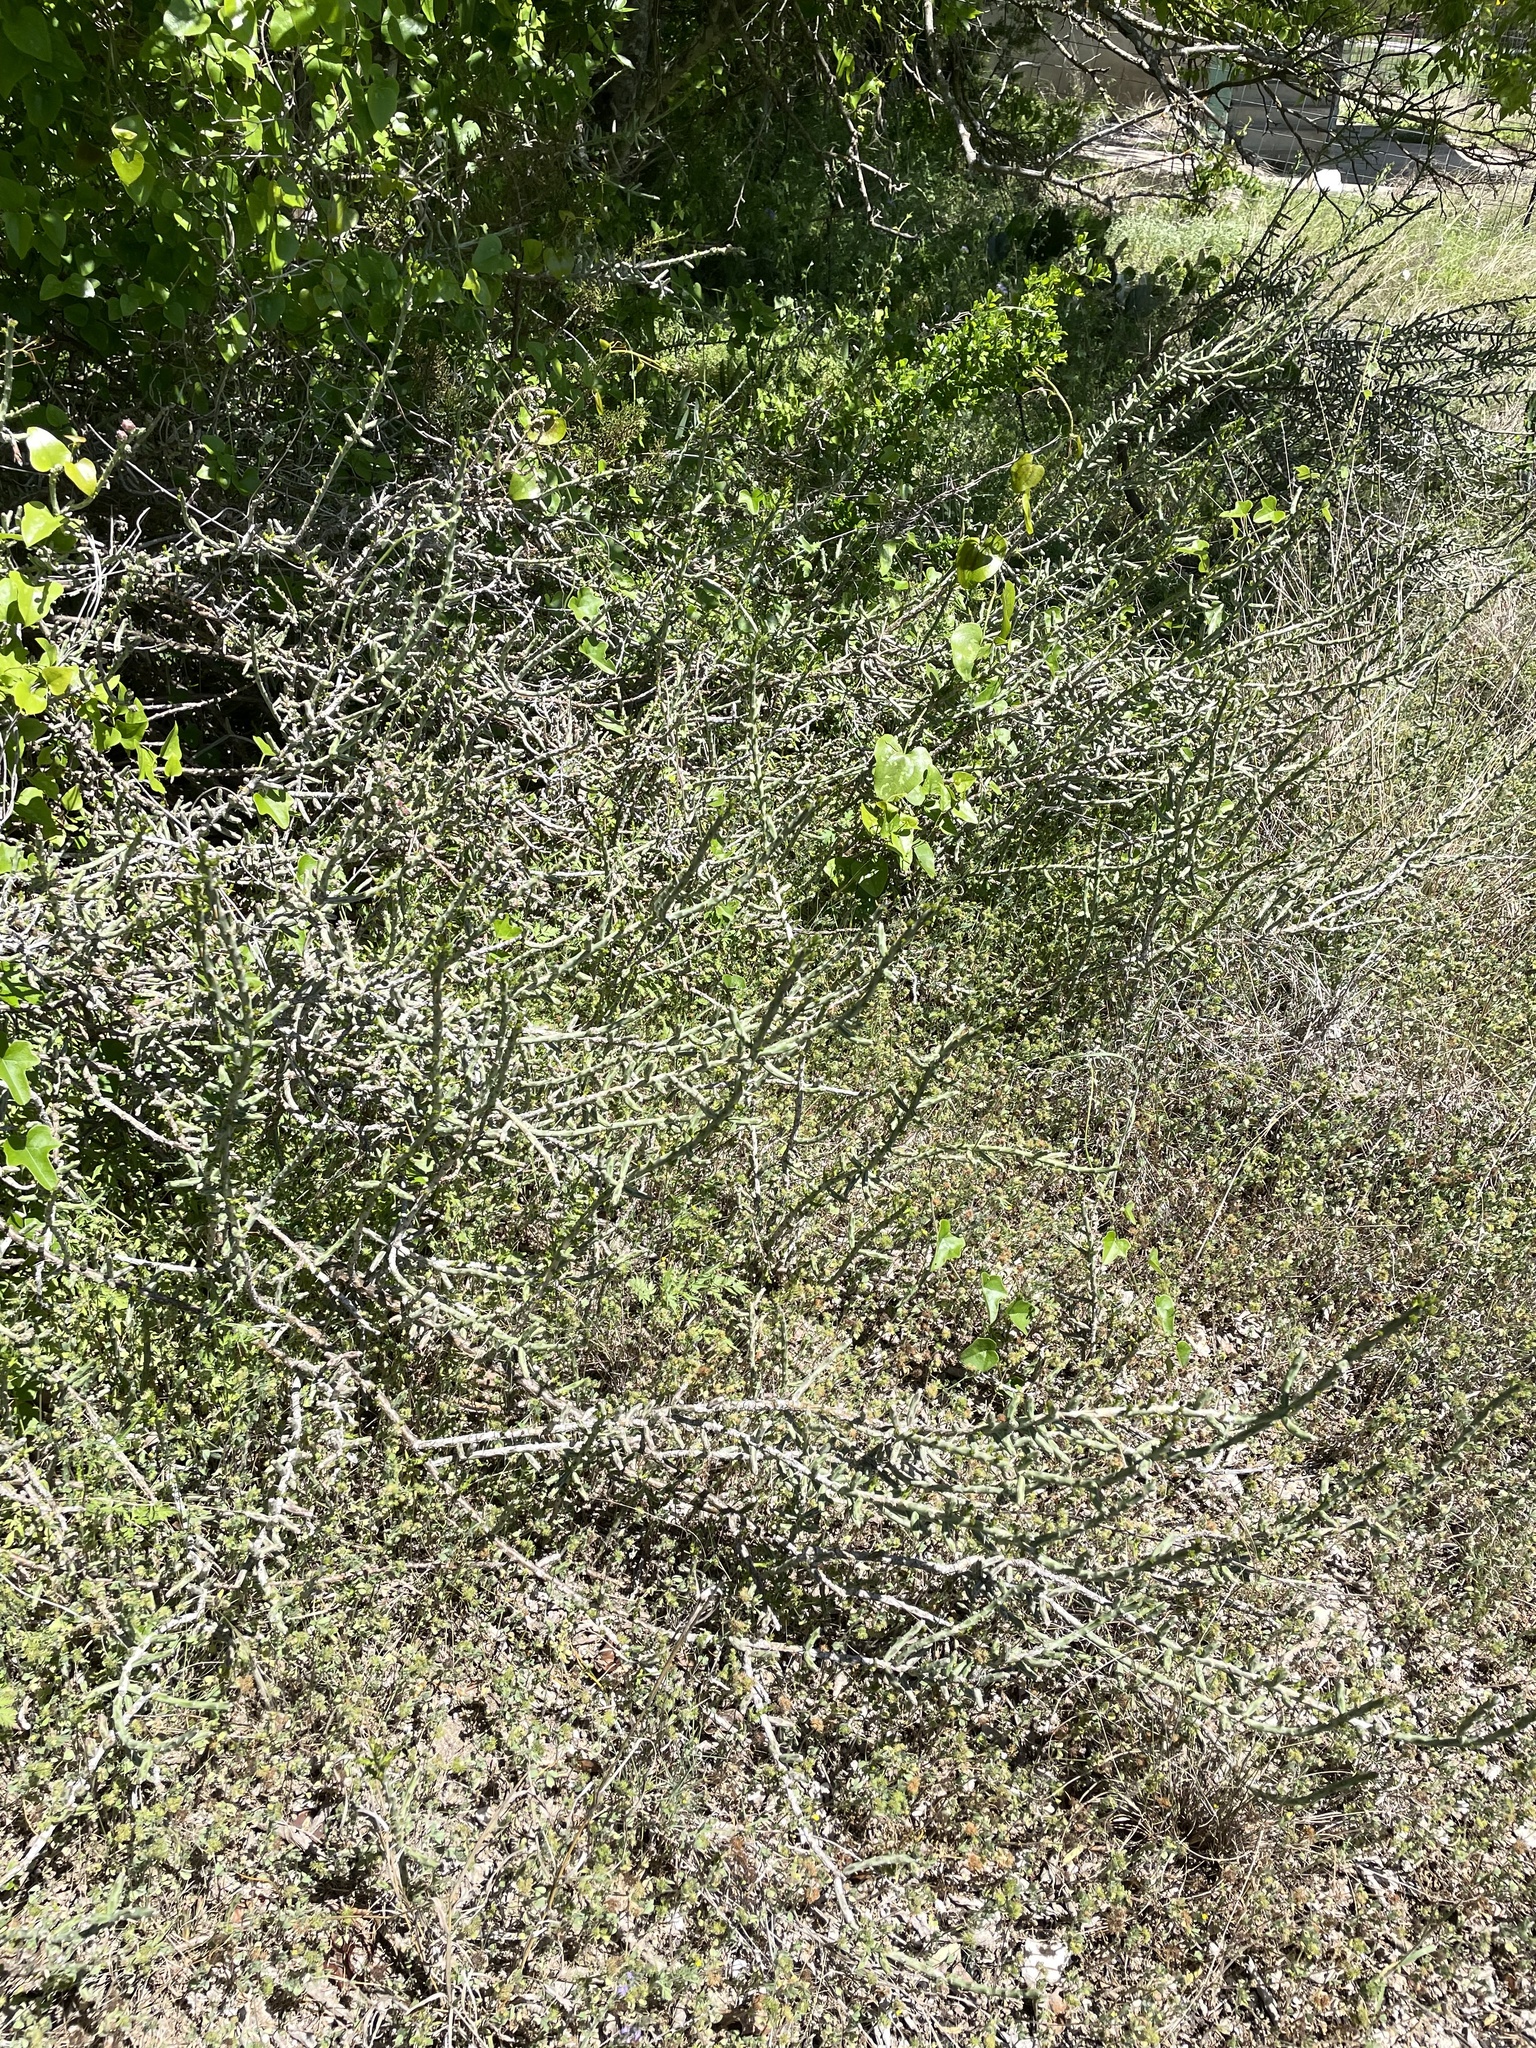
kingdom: Plantae
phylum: Tracheophyta
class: Magnoliopsida
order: Caryophyllales
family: Cactaceae
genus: Cylindropuntia
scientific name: Cylindropuntia leptocaulis
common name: Christmas cactus
